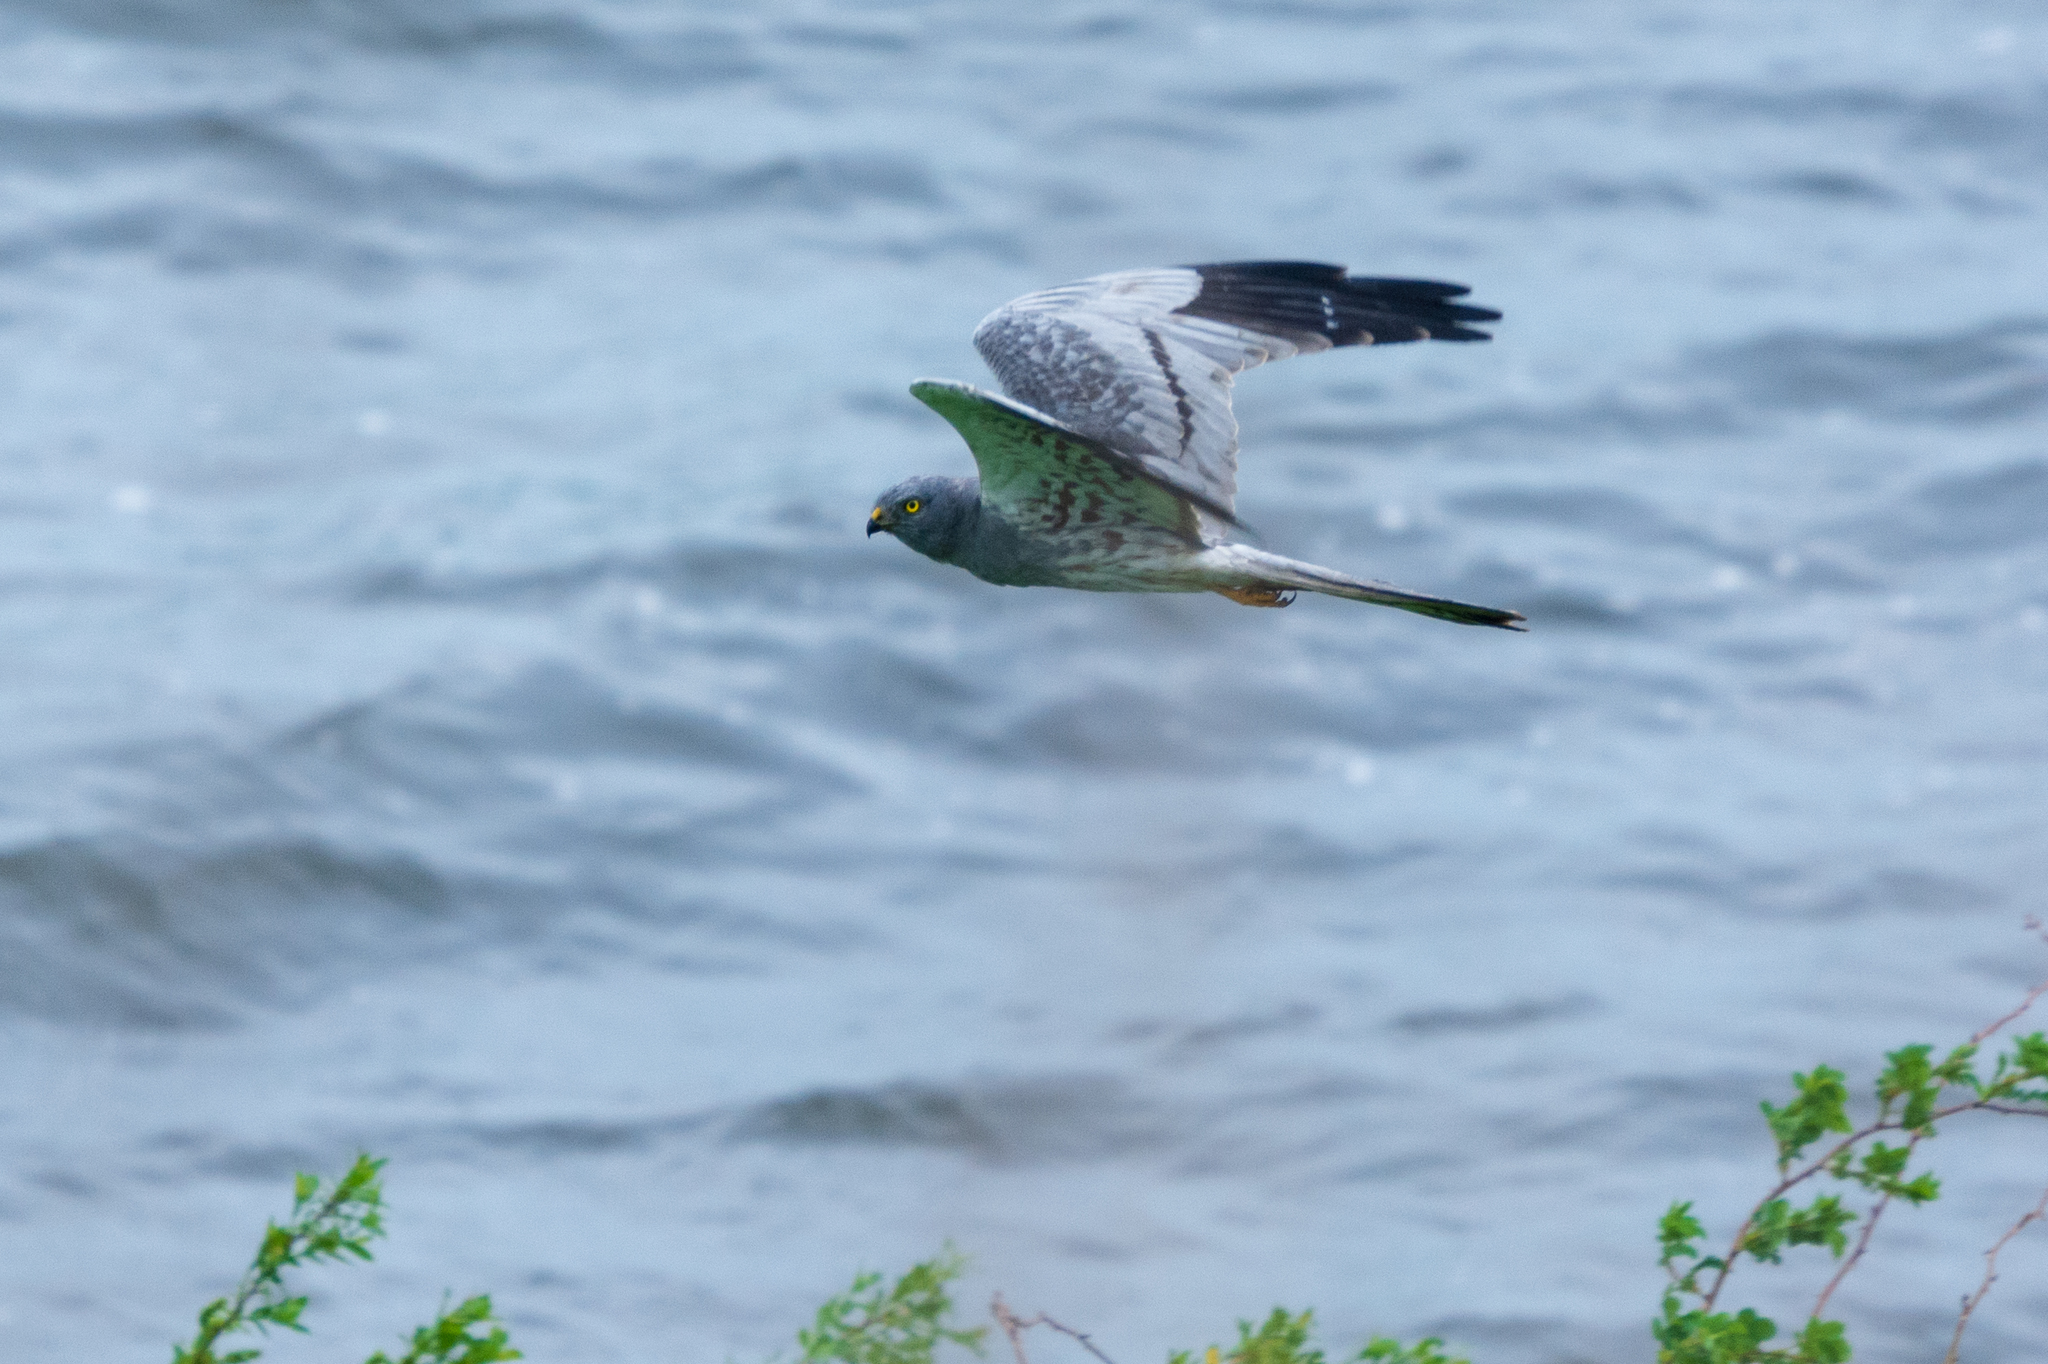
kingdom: Animalia
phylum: Chordata
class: Aves
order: Accipitriformes
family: Accipitridae
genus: Circus
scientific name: Circus pygargus
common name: Montagu's harrier
